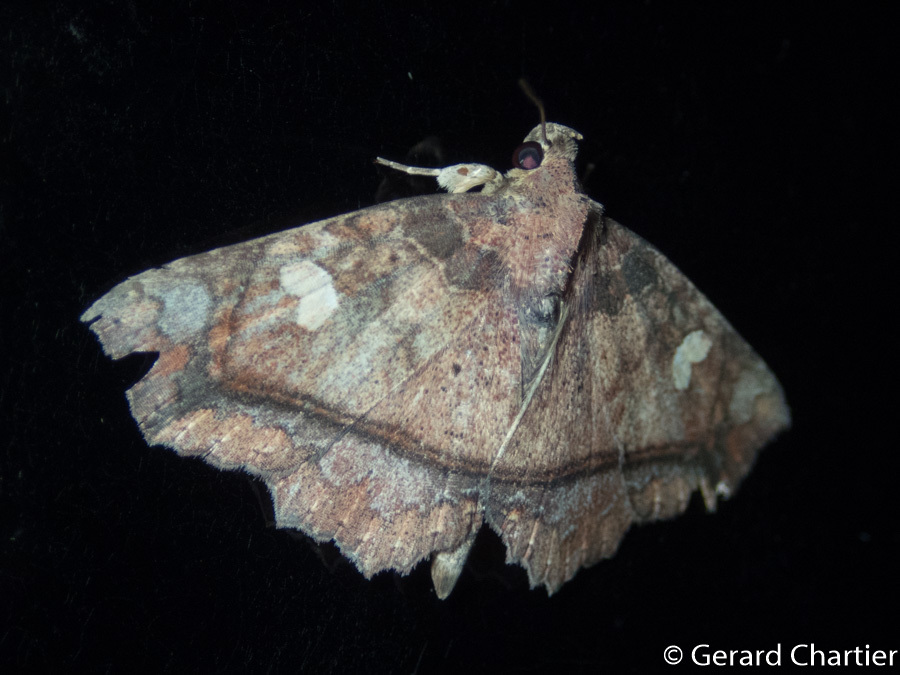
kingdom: Animalia
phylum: Arthropoda
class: Insecta
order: Lepidoptera
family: Erebidae
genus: Tamba
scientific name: Tamba rufipennis
